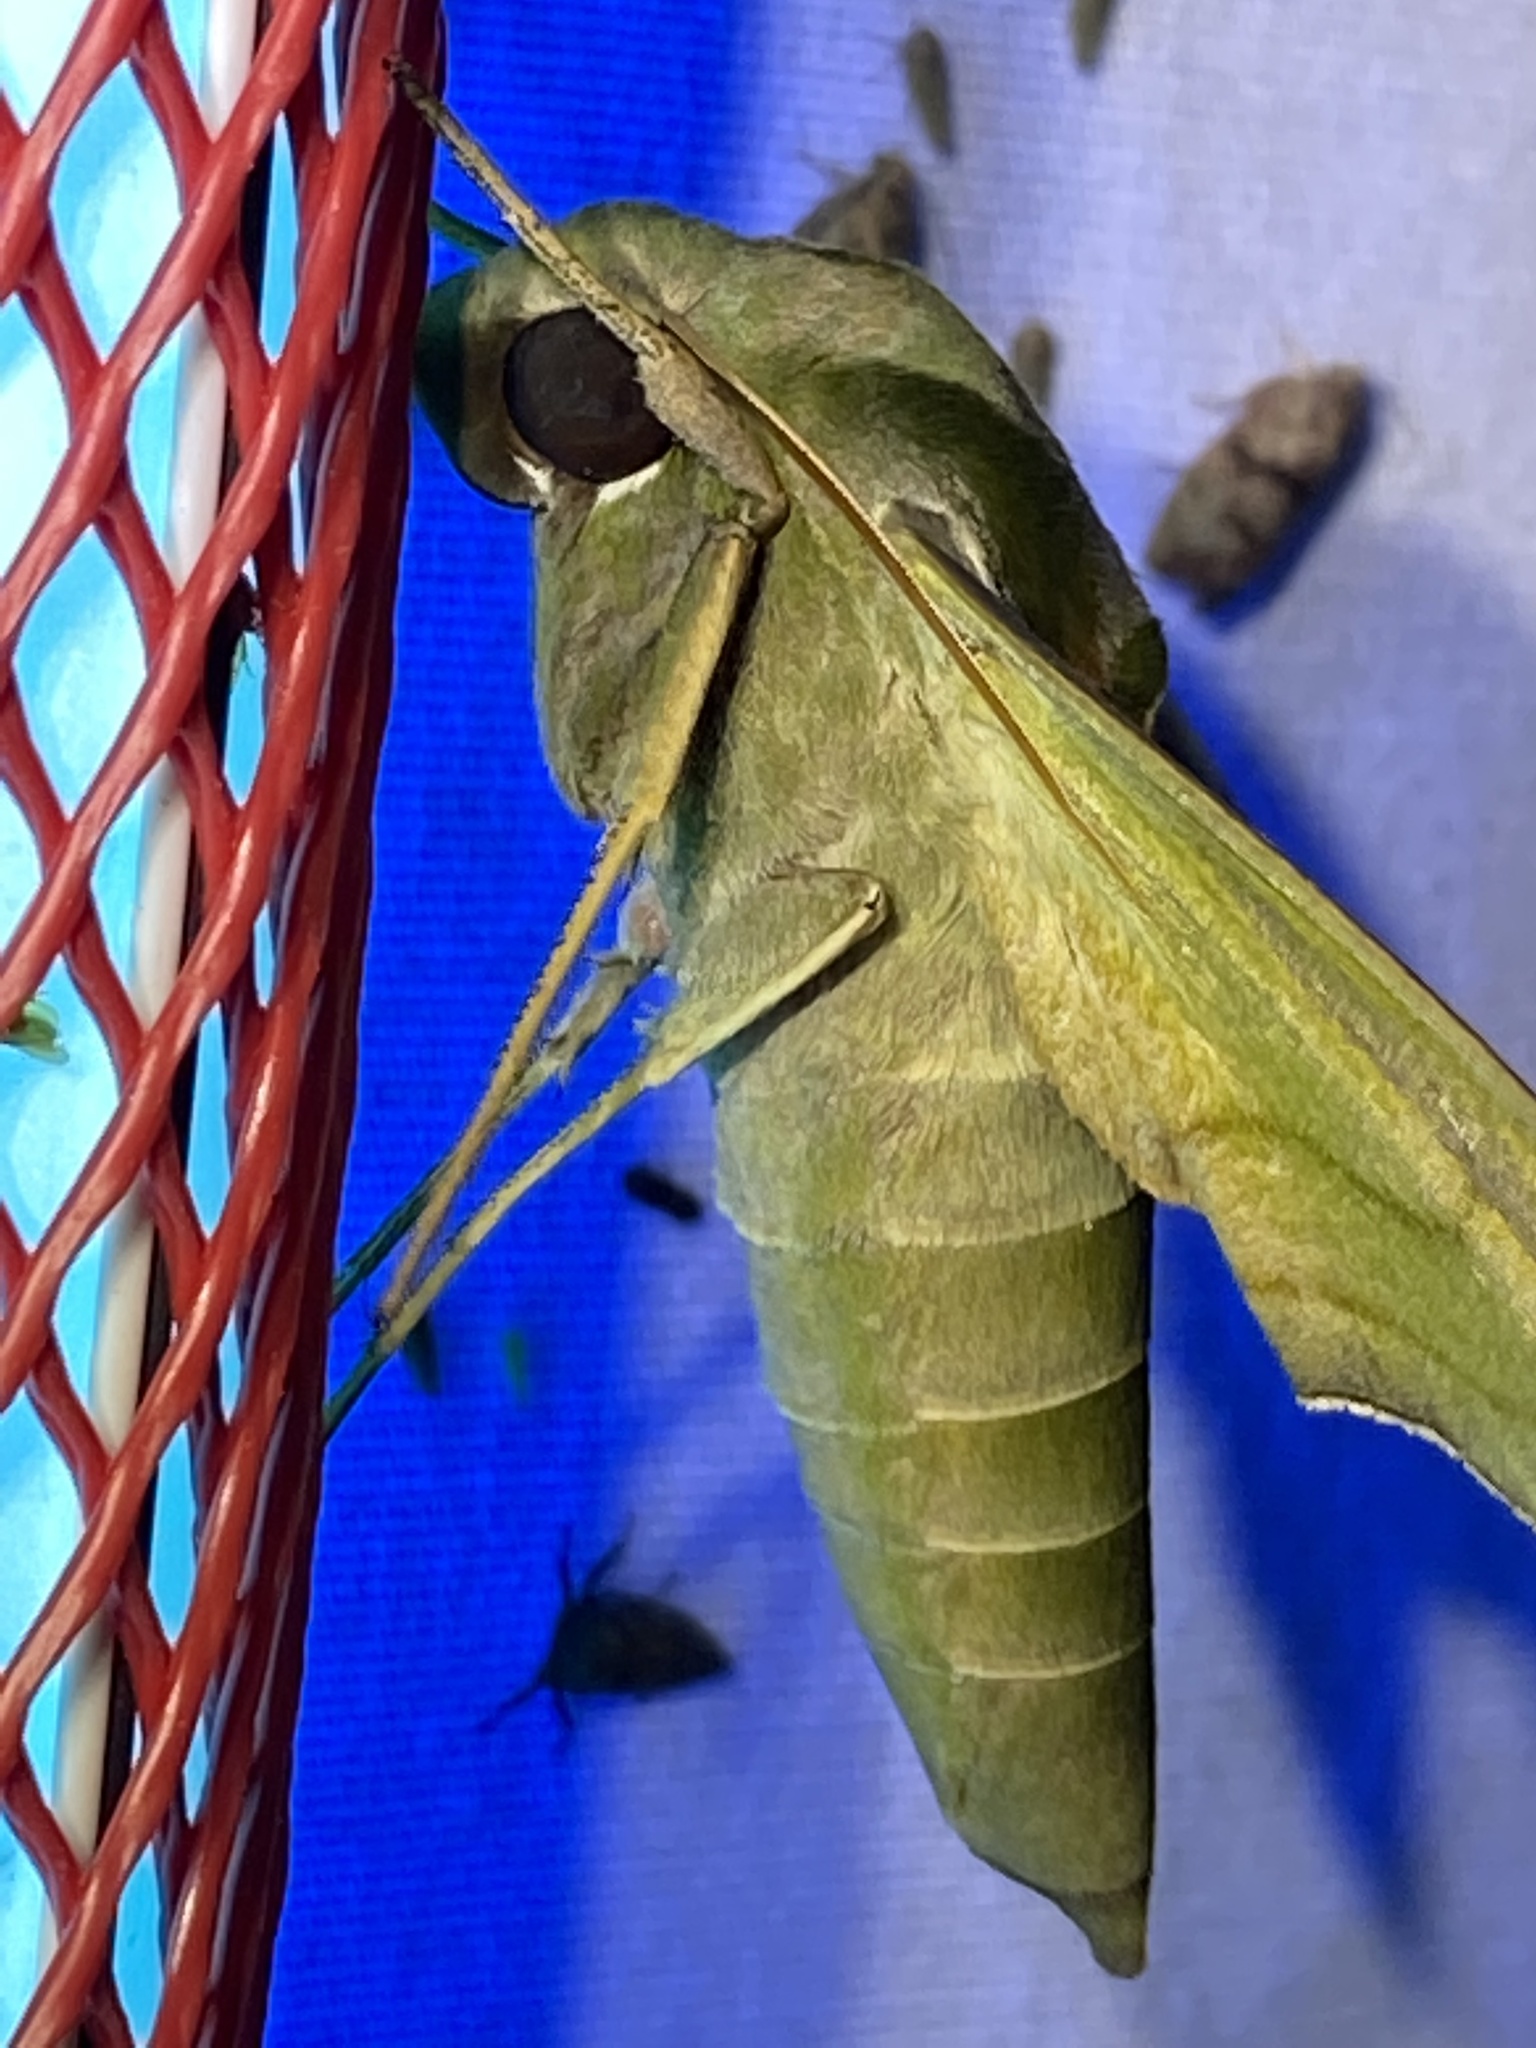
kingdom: Animalia
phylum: Arthropoda
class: Insecta
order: Lepidoptera
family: Sphingidae
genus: Eumorpha
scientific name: Eumorpha pandorus
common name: Pandora sphinx
